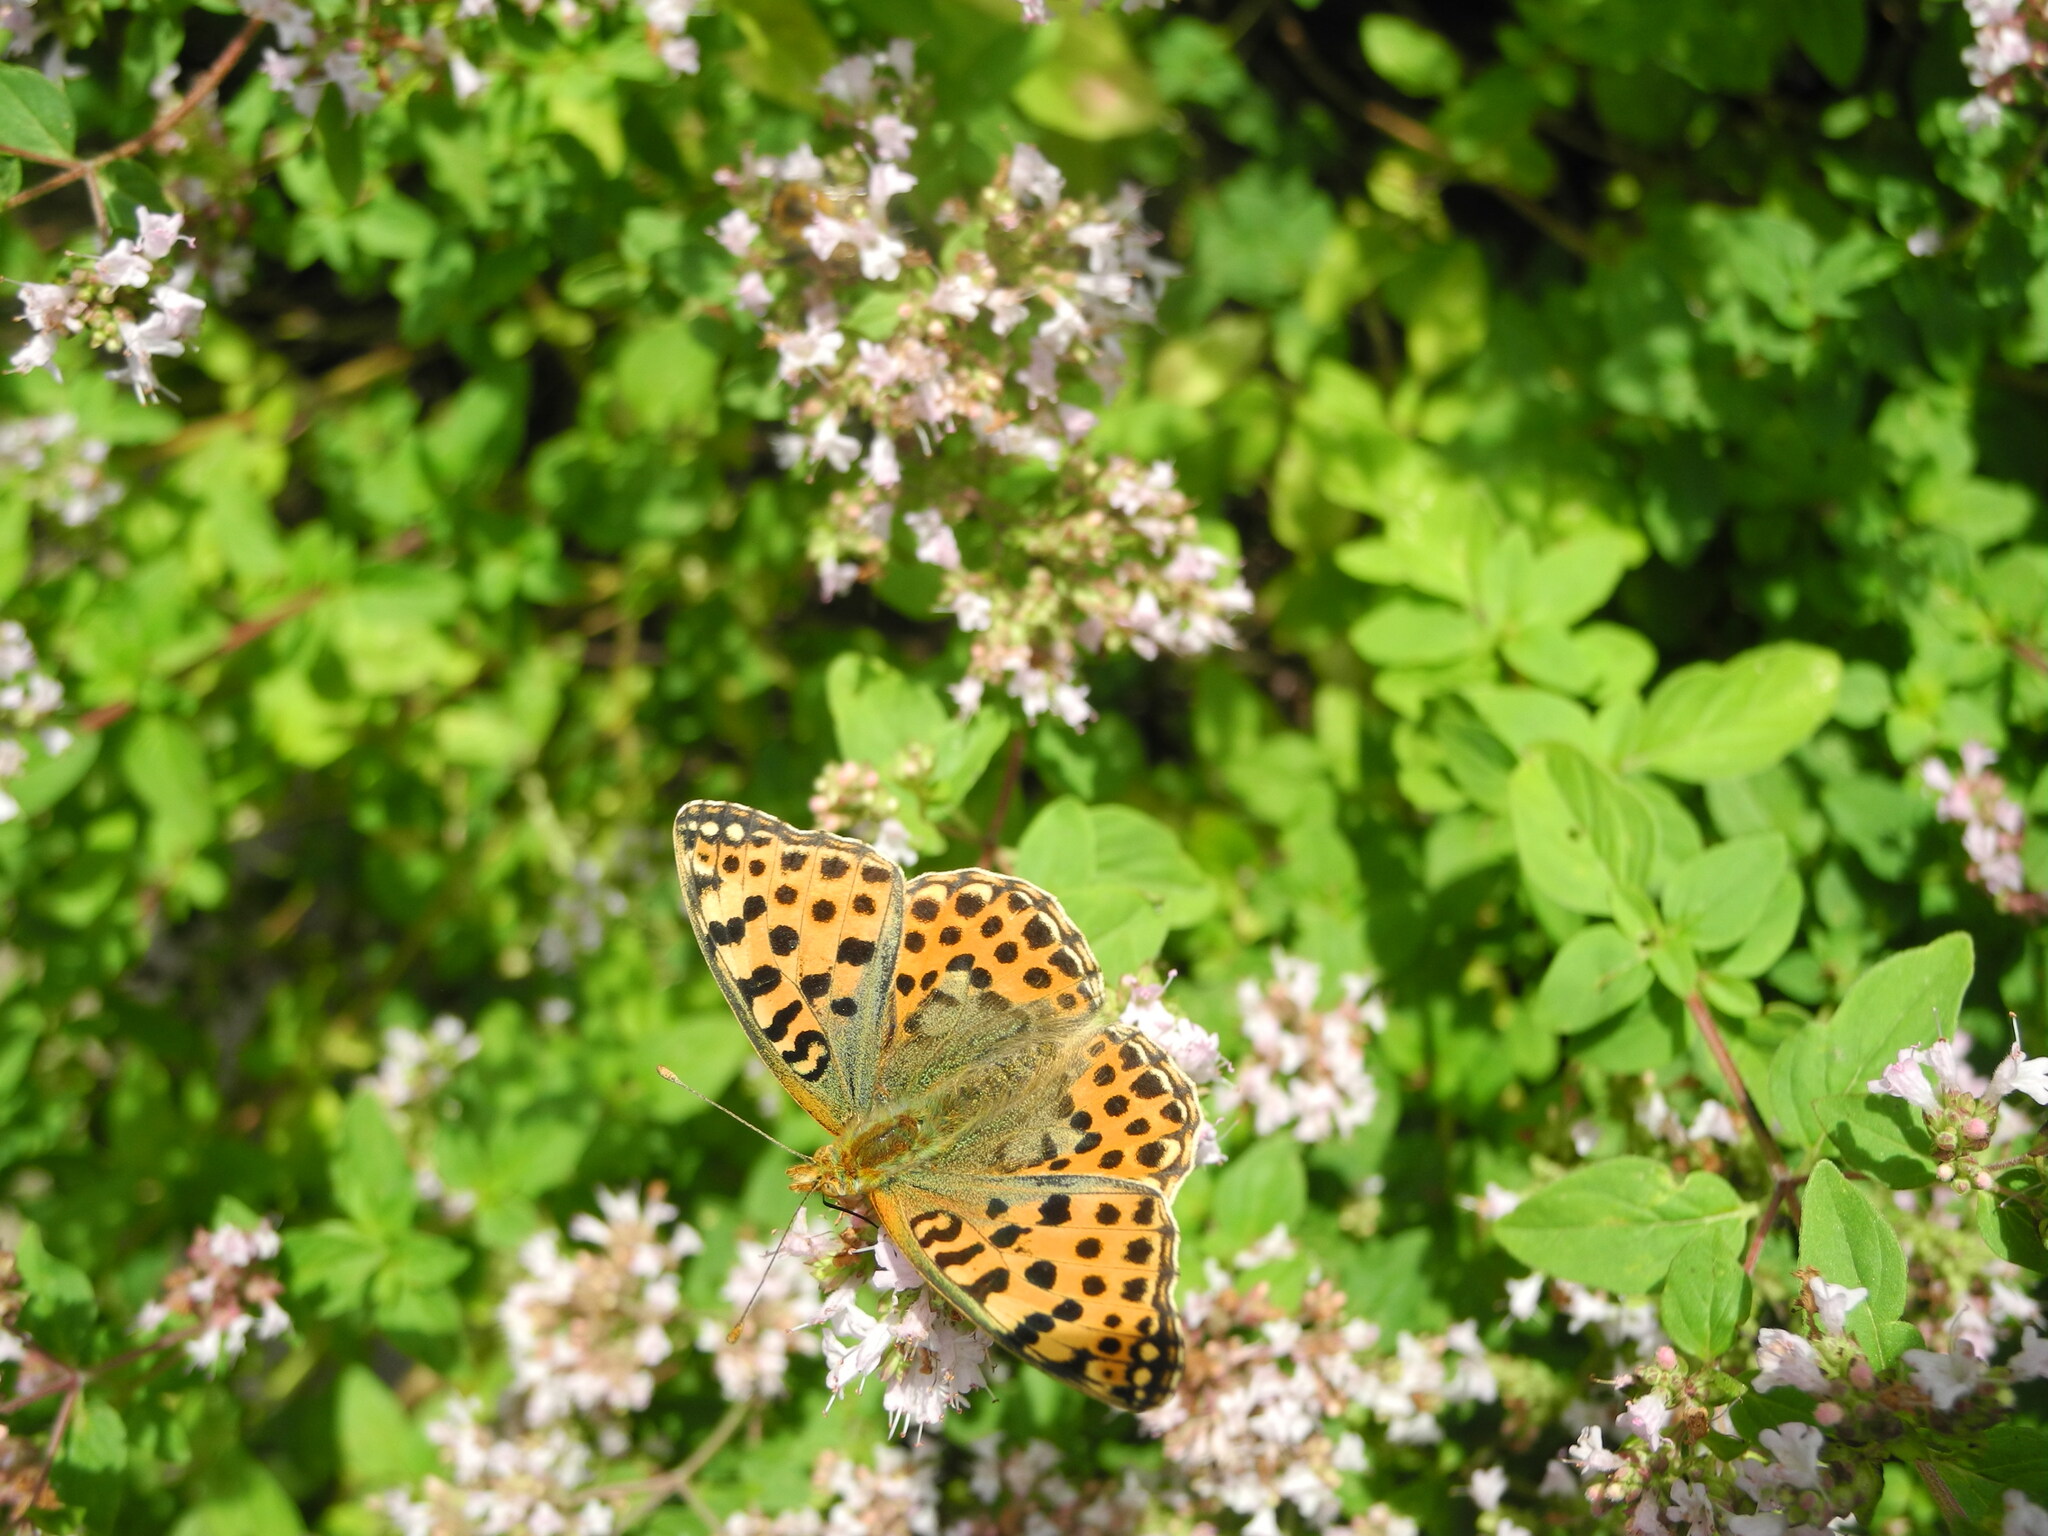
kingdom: Animalia
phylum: Arthropoda
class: Insecta
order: Lepidoptera
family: Nymphalidae
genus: Issoria
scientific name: Issoria lathonia
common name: Queen of spain fritillary
